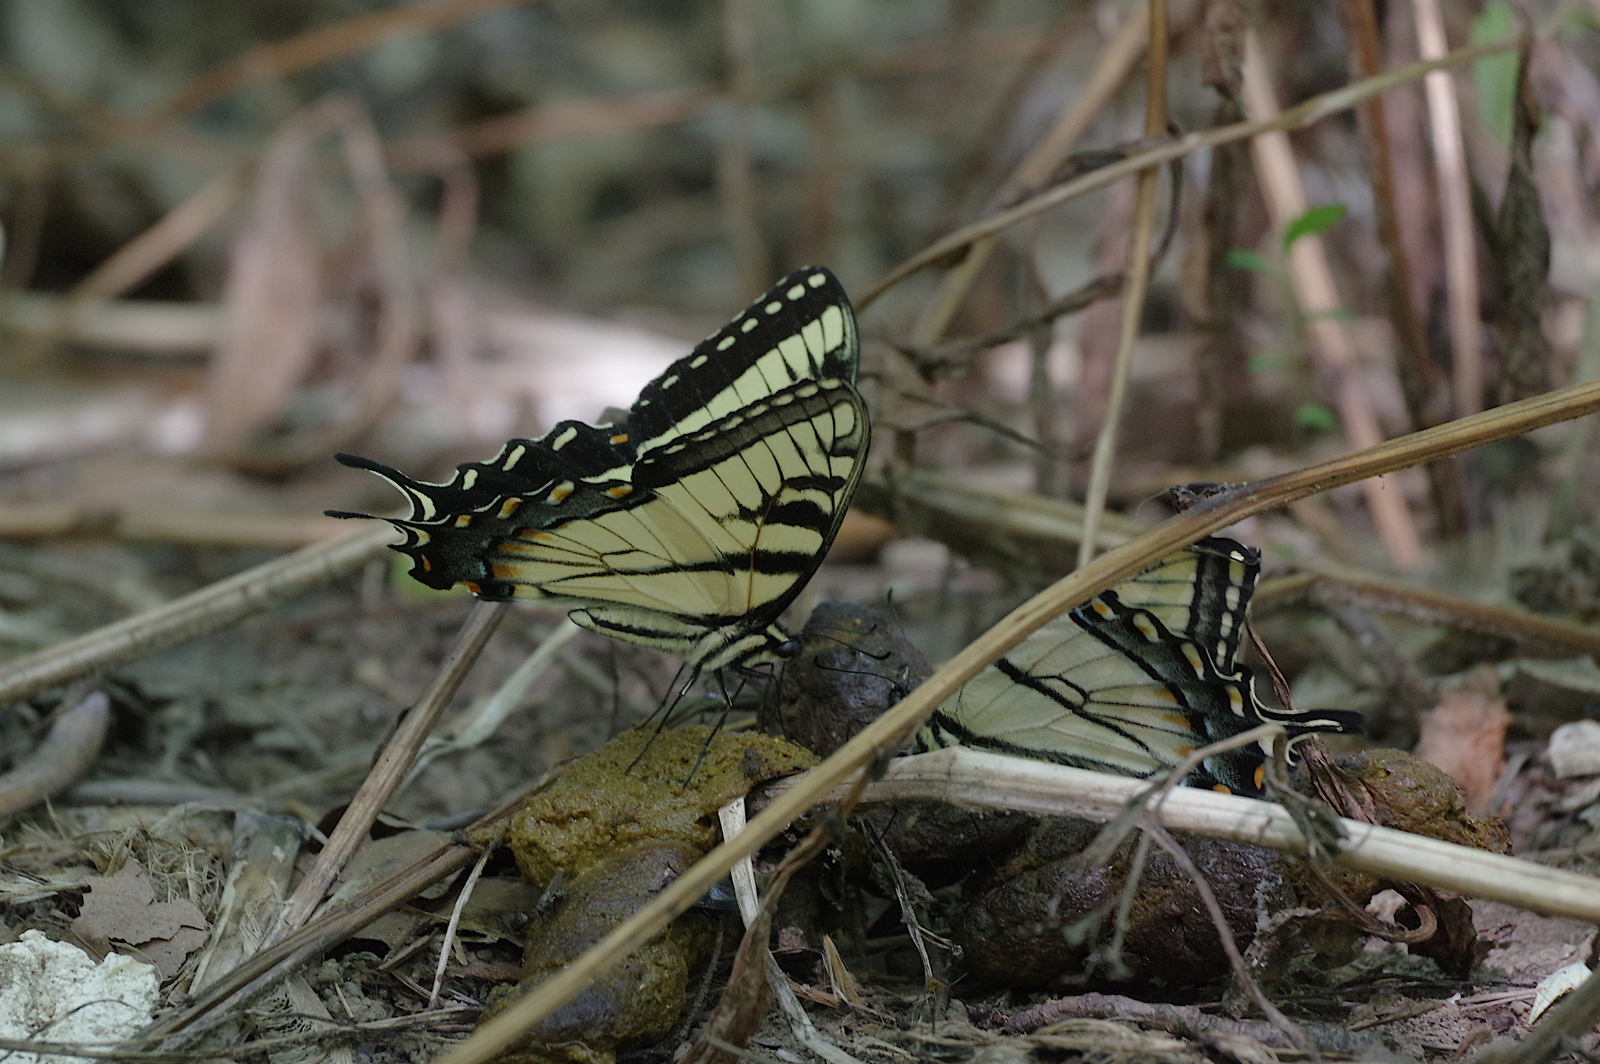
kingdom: Animalia
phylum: Arthropoda
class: Insecta
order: Lepidoptera
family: Papilionidae
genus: Papilio
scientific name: Papilio glaucus
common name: Tiger swallowtail
